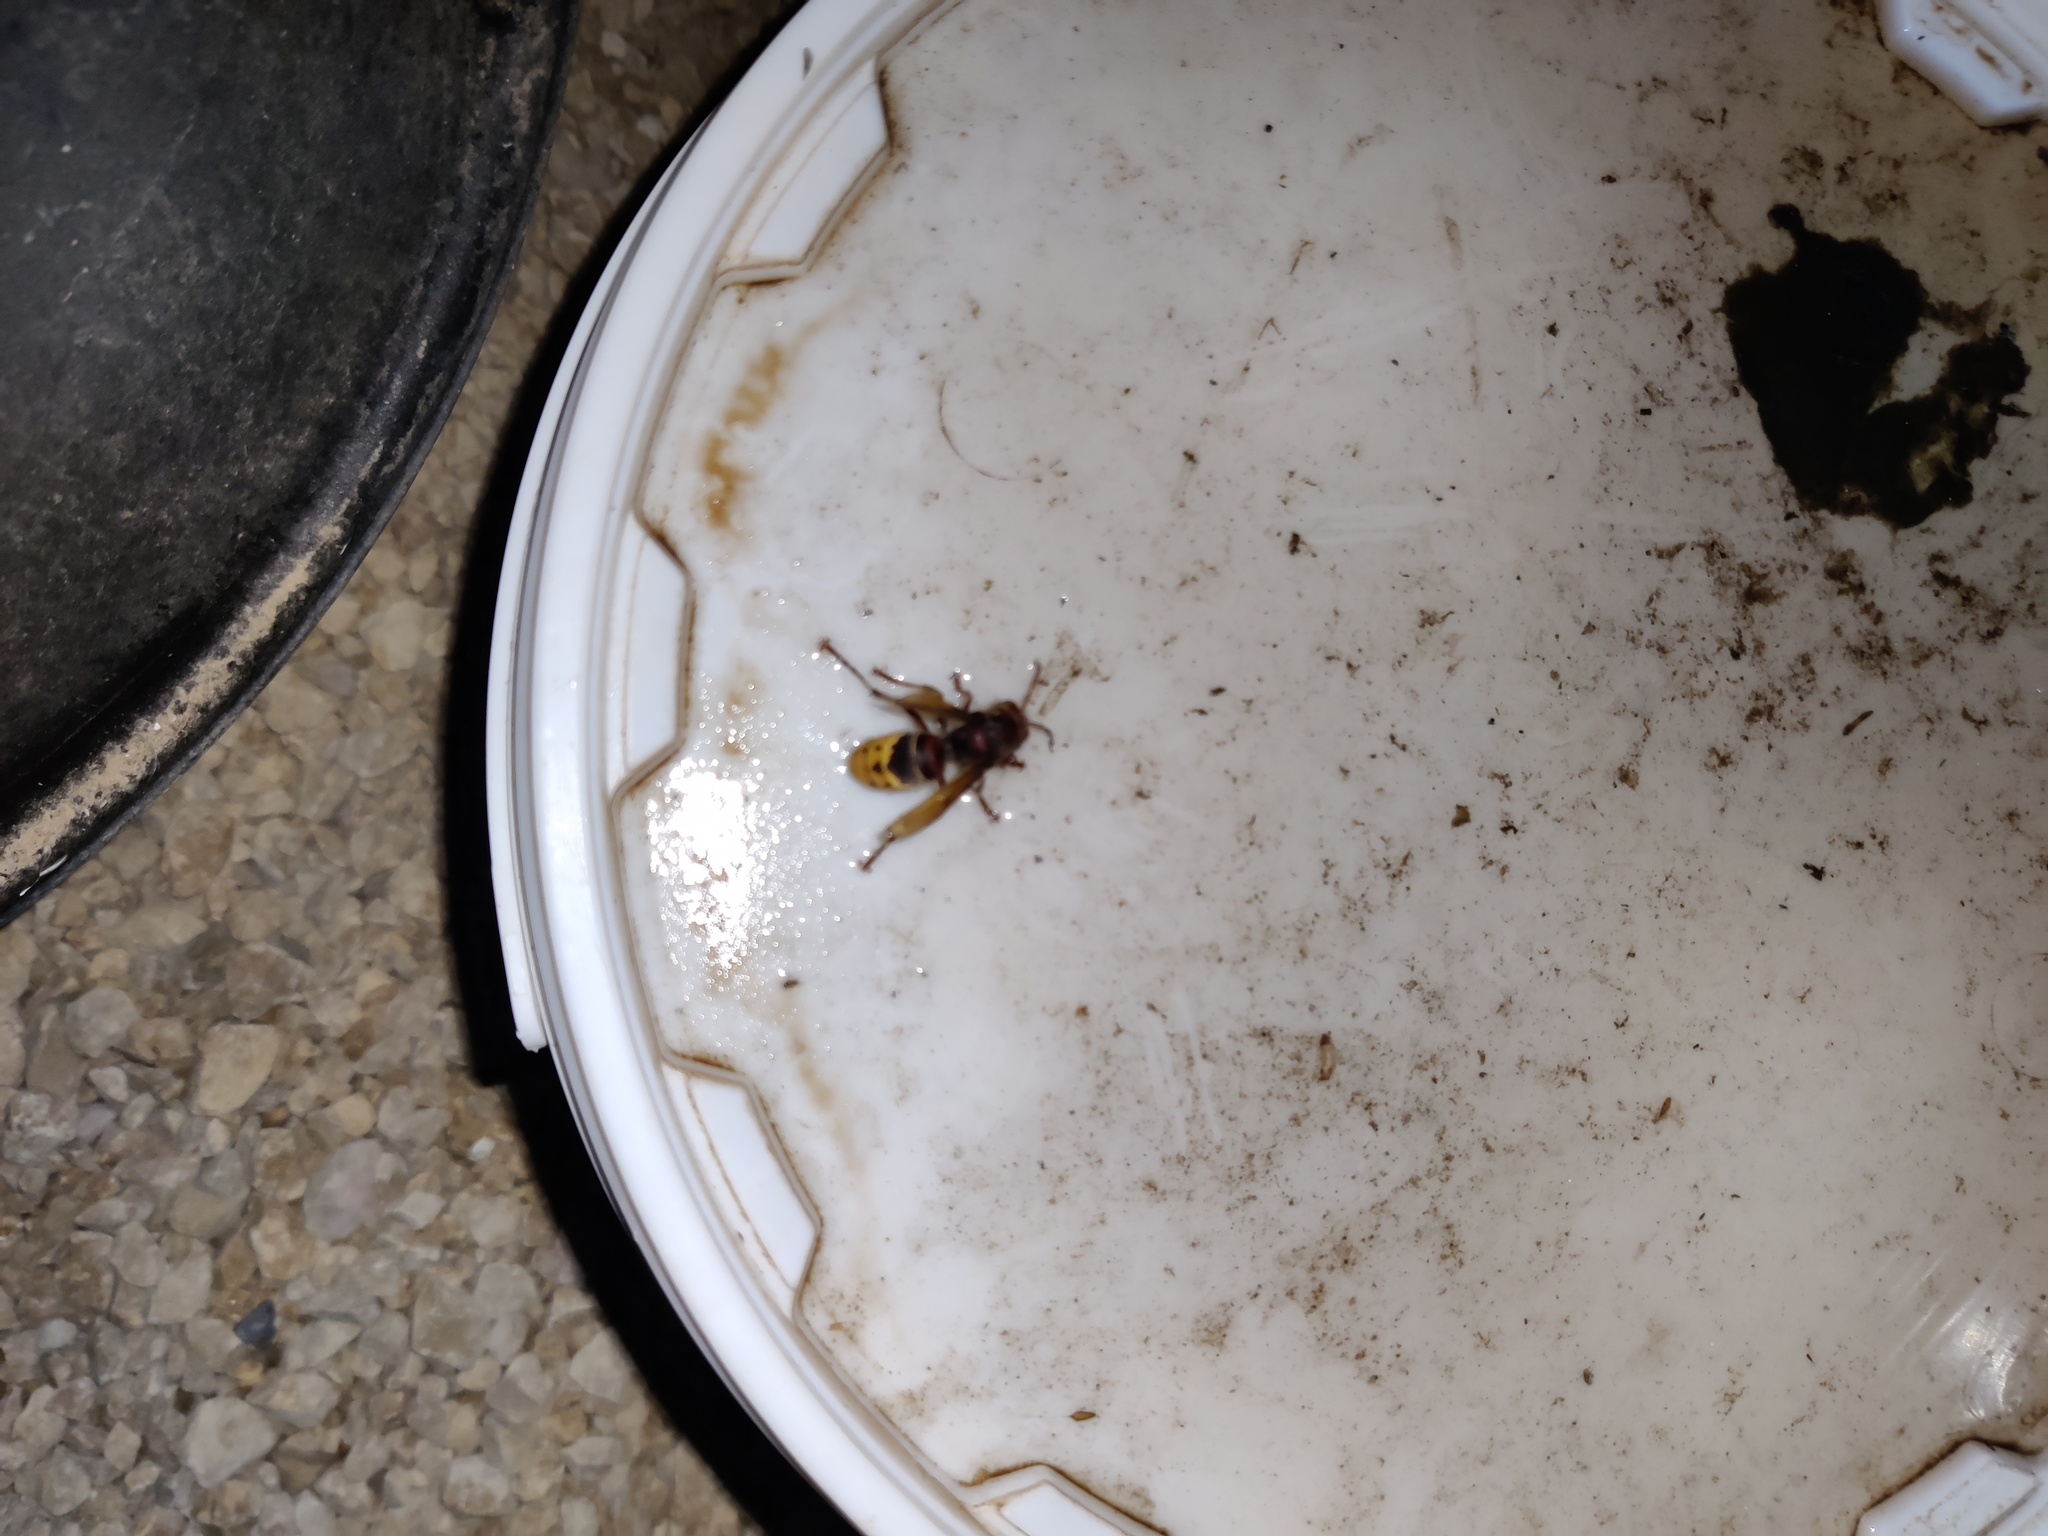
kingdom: Animalia
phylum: Arthropoda
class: Insecta
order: Hymenoptera
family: Vespidae
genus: Vespa
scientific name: Vespa crabro
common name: Hornet
